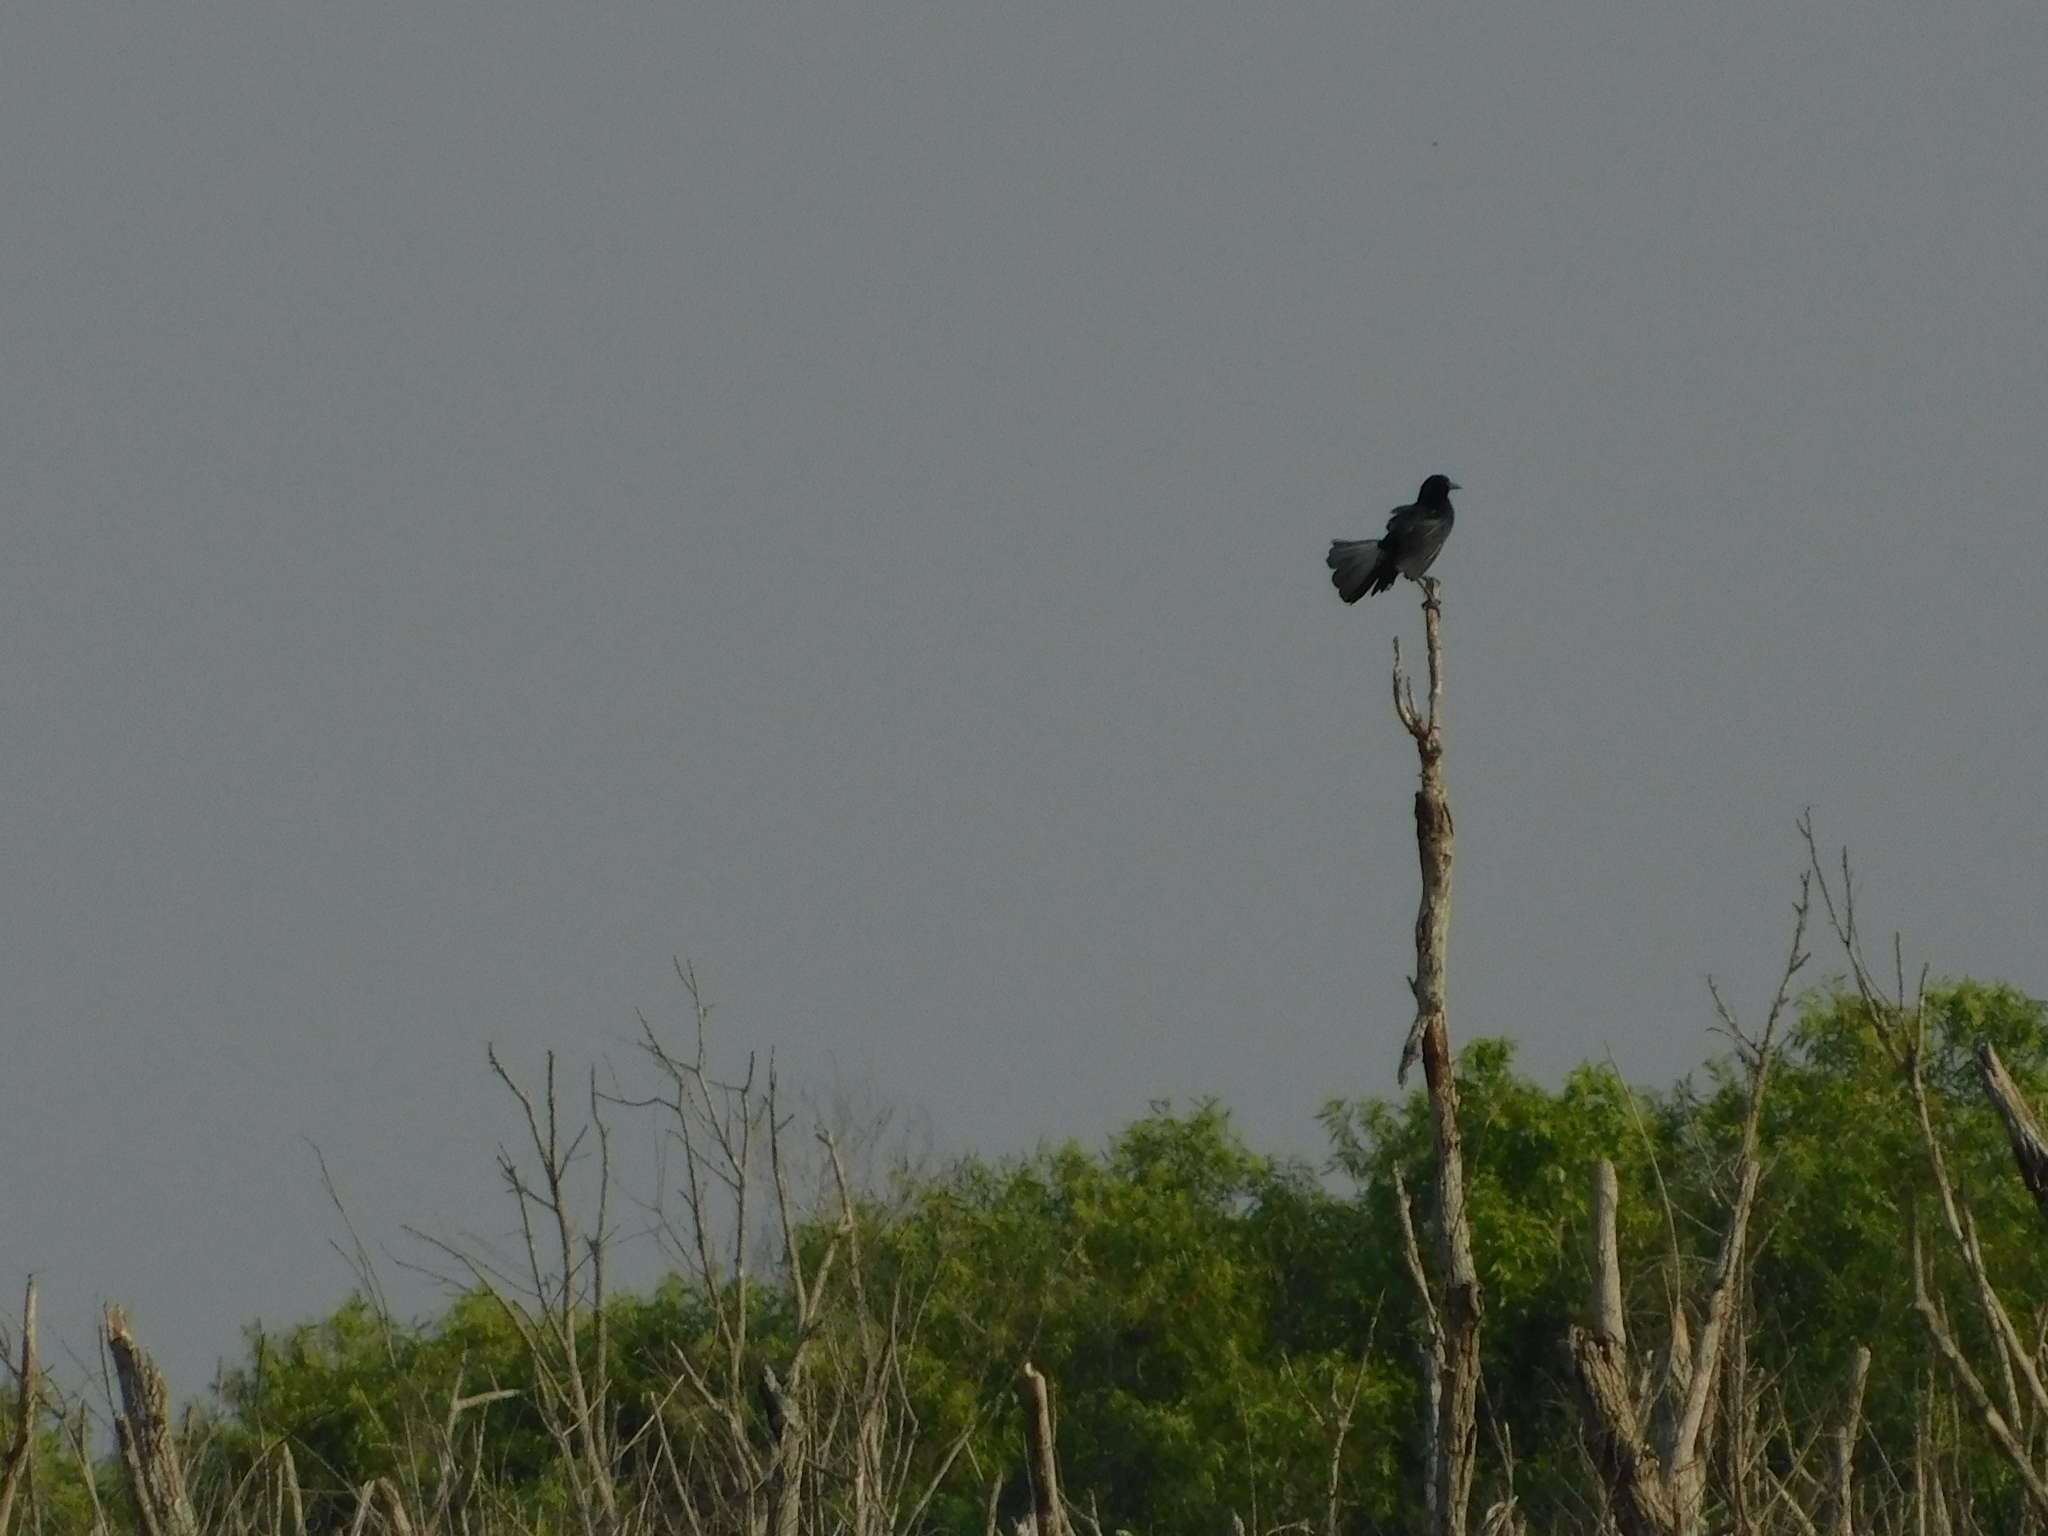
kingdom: Animalia
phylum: Chordata
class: Aves
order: Passeriformes
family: Icteridae
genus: Quiscalus
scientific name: Quiscalus major
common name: Boat-tailed grackle
